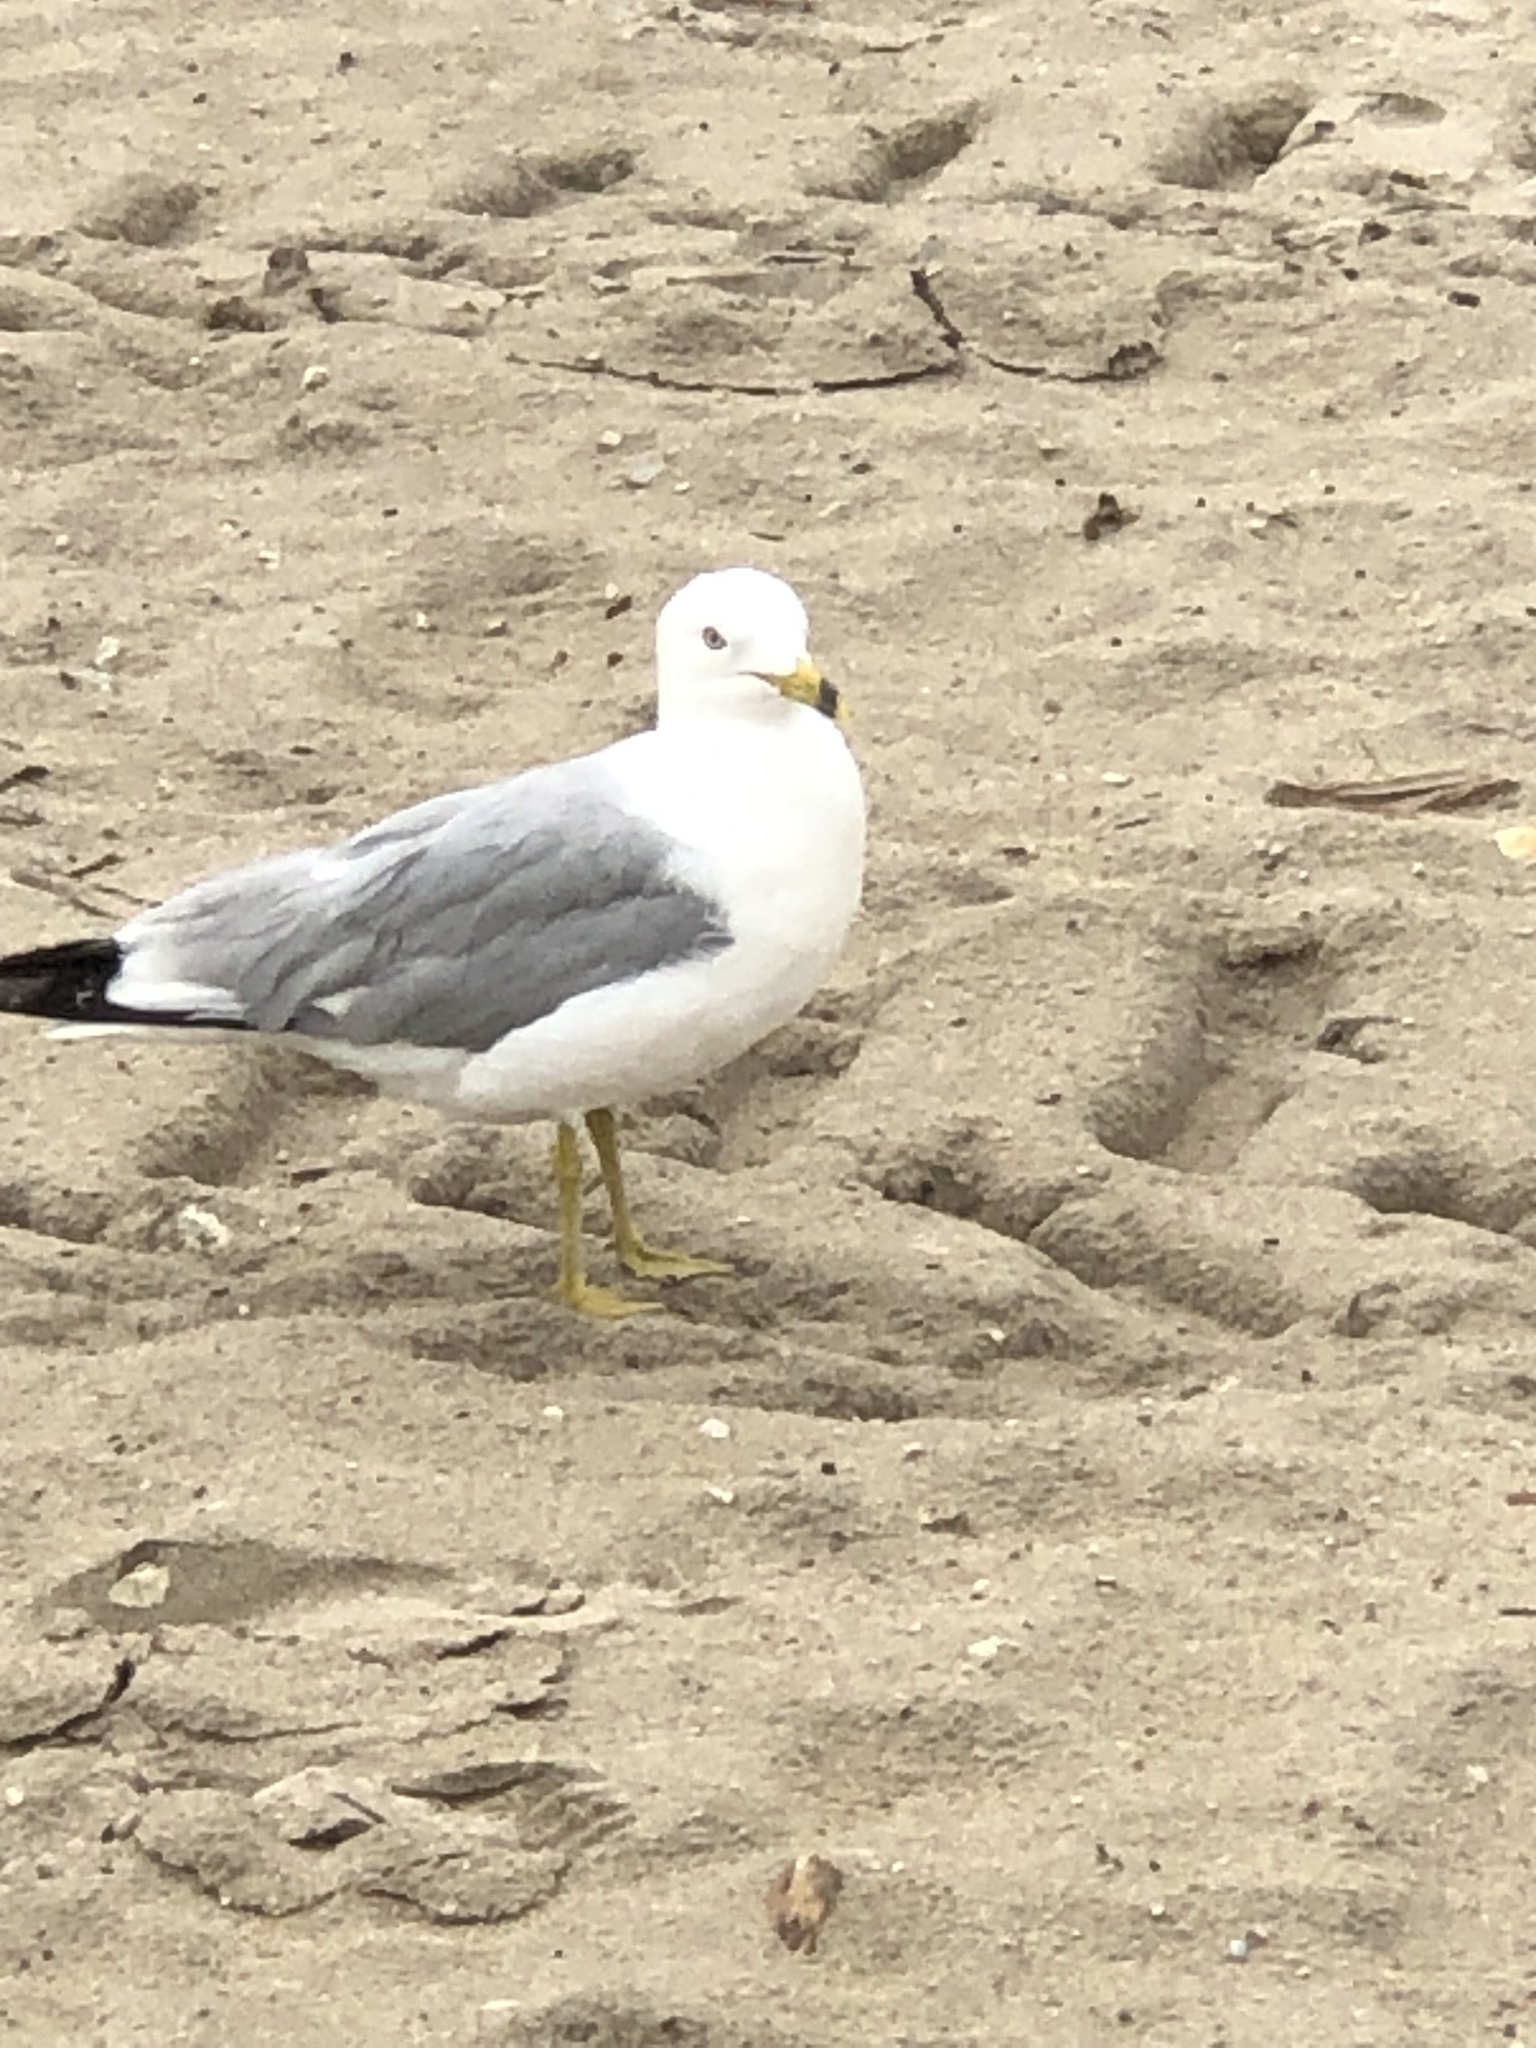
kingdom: Animalia
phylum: Chordata
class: Aves
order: Charadriiformes
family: Laridae
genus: Larus
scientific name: Larus delawarensis
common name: Ring-billed gull
